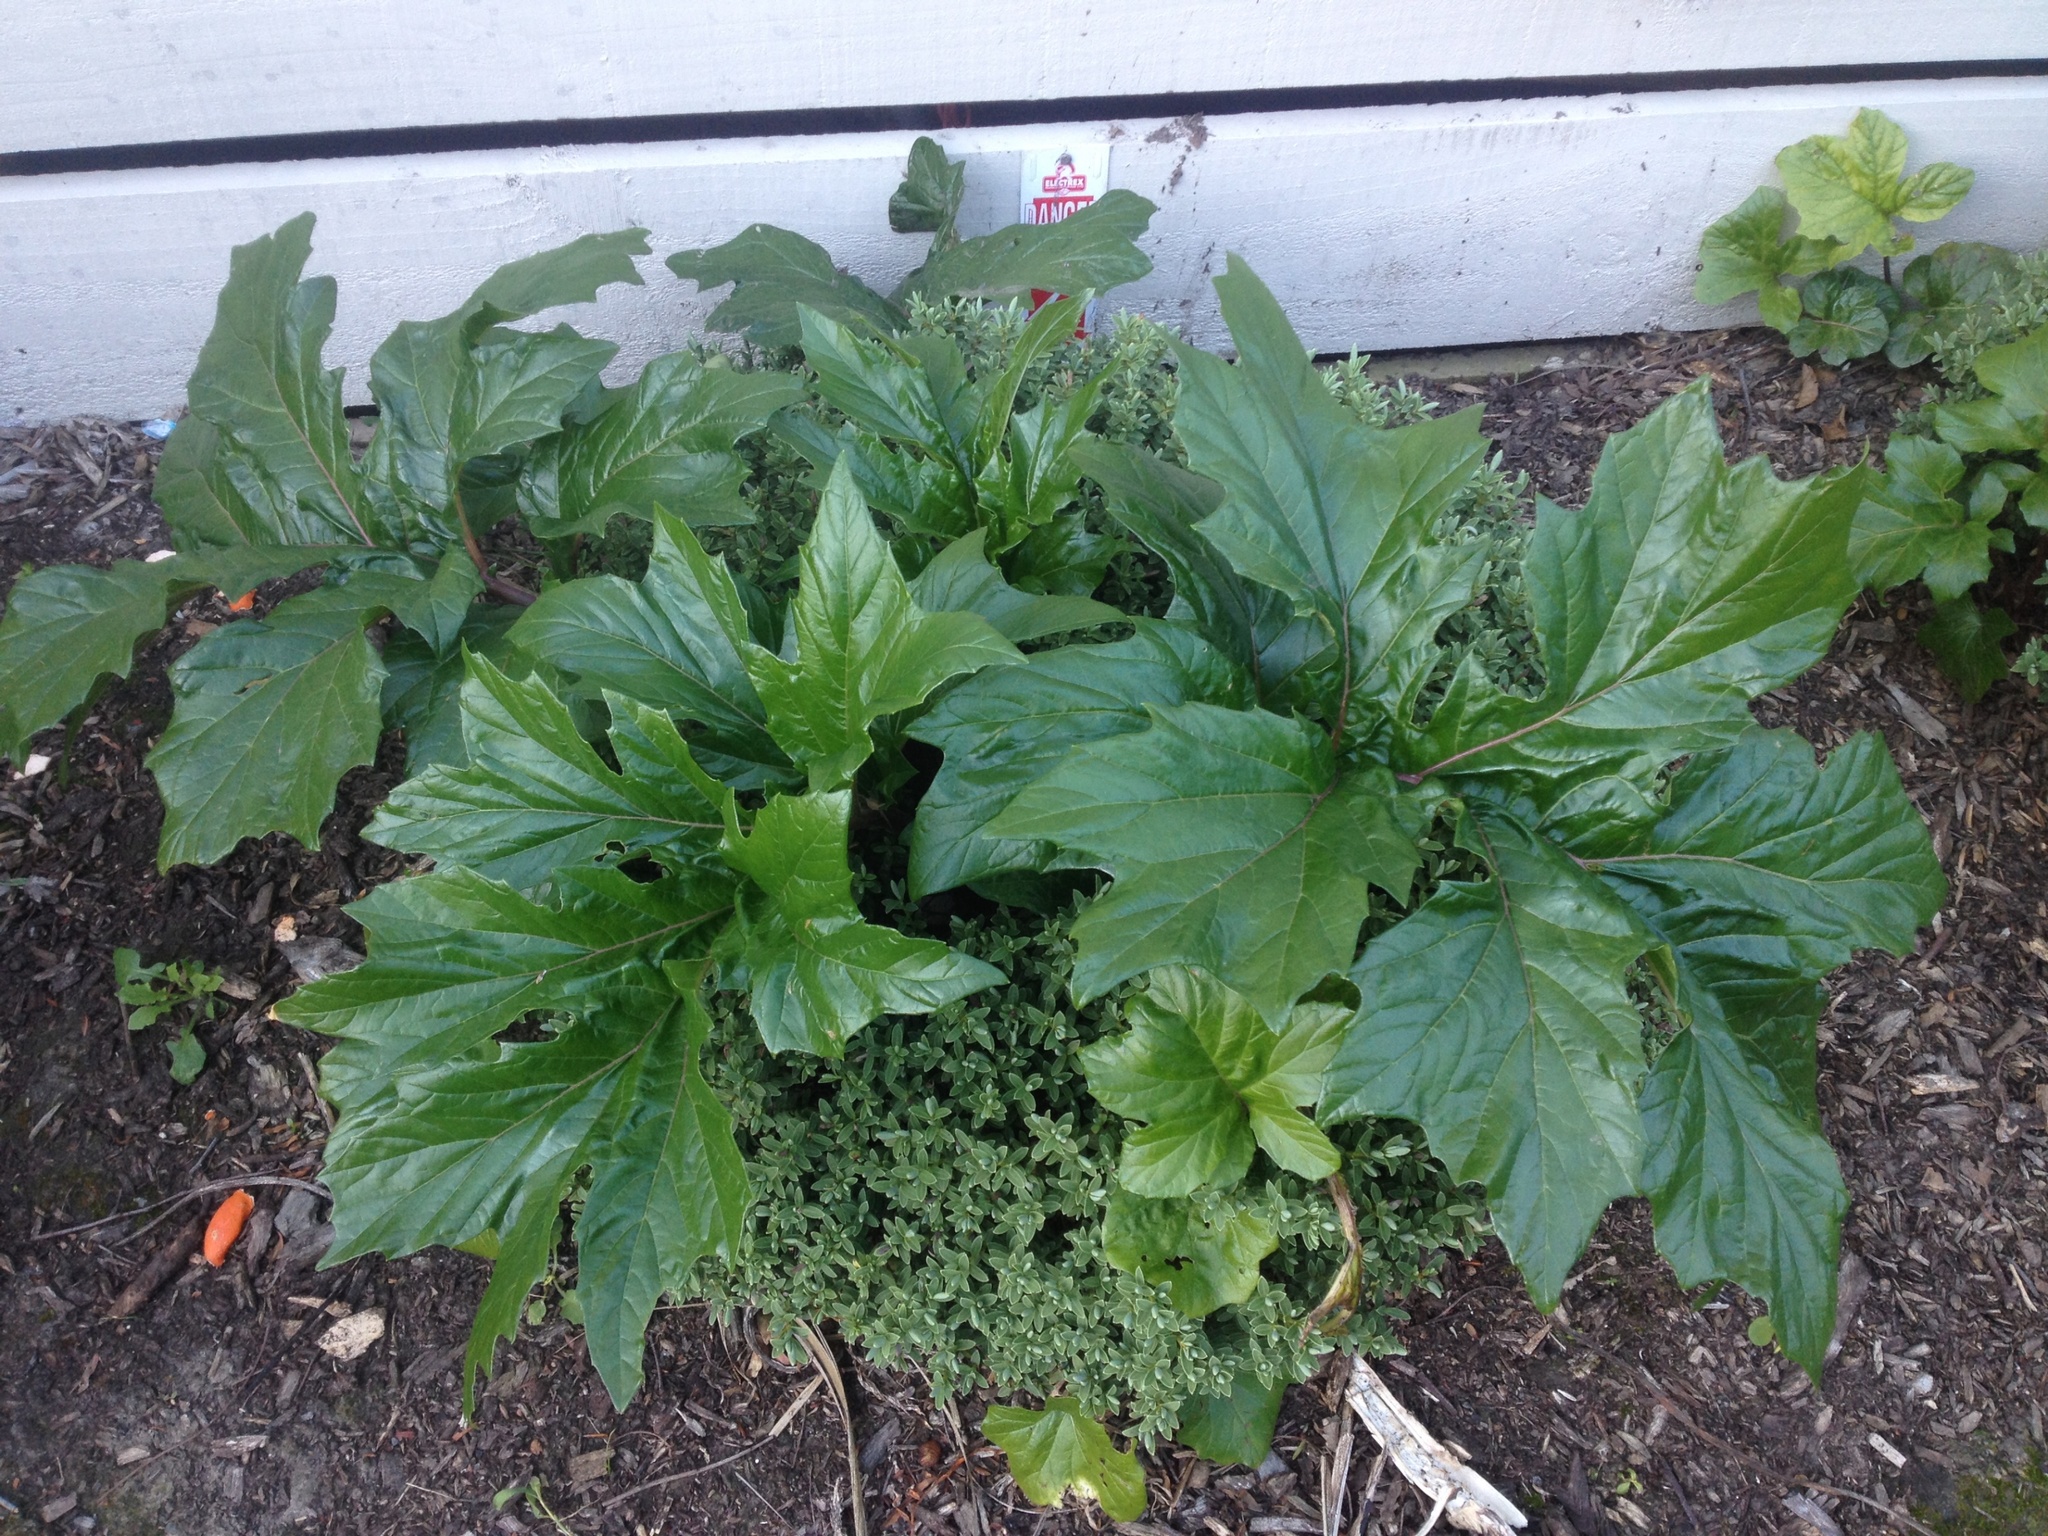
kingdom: Plantae
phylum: Tracheophyta
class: Magnoliopsida
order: Lamiales
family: Acanthaceae
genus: Acanthus
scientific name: Acanthus mollis
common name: Bear's-breech
